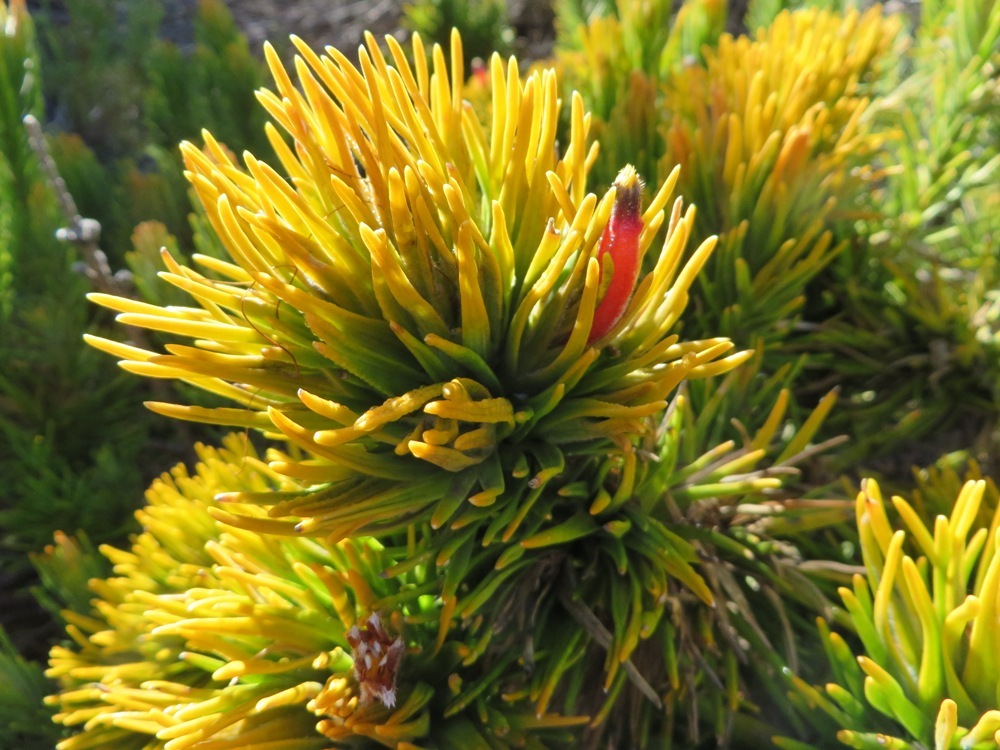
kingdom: Plantae
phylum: Tracheophyta
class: Magnoliopsida
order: Lamiales
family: Stilbaceae
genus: Retzia
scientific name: Retzia capensis
